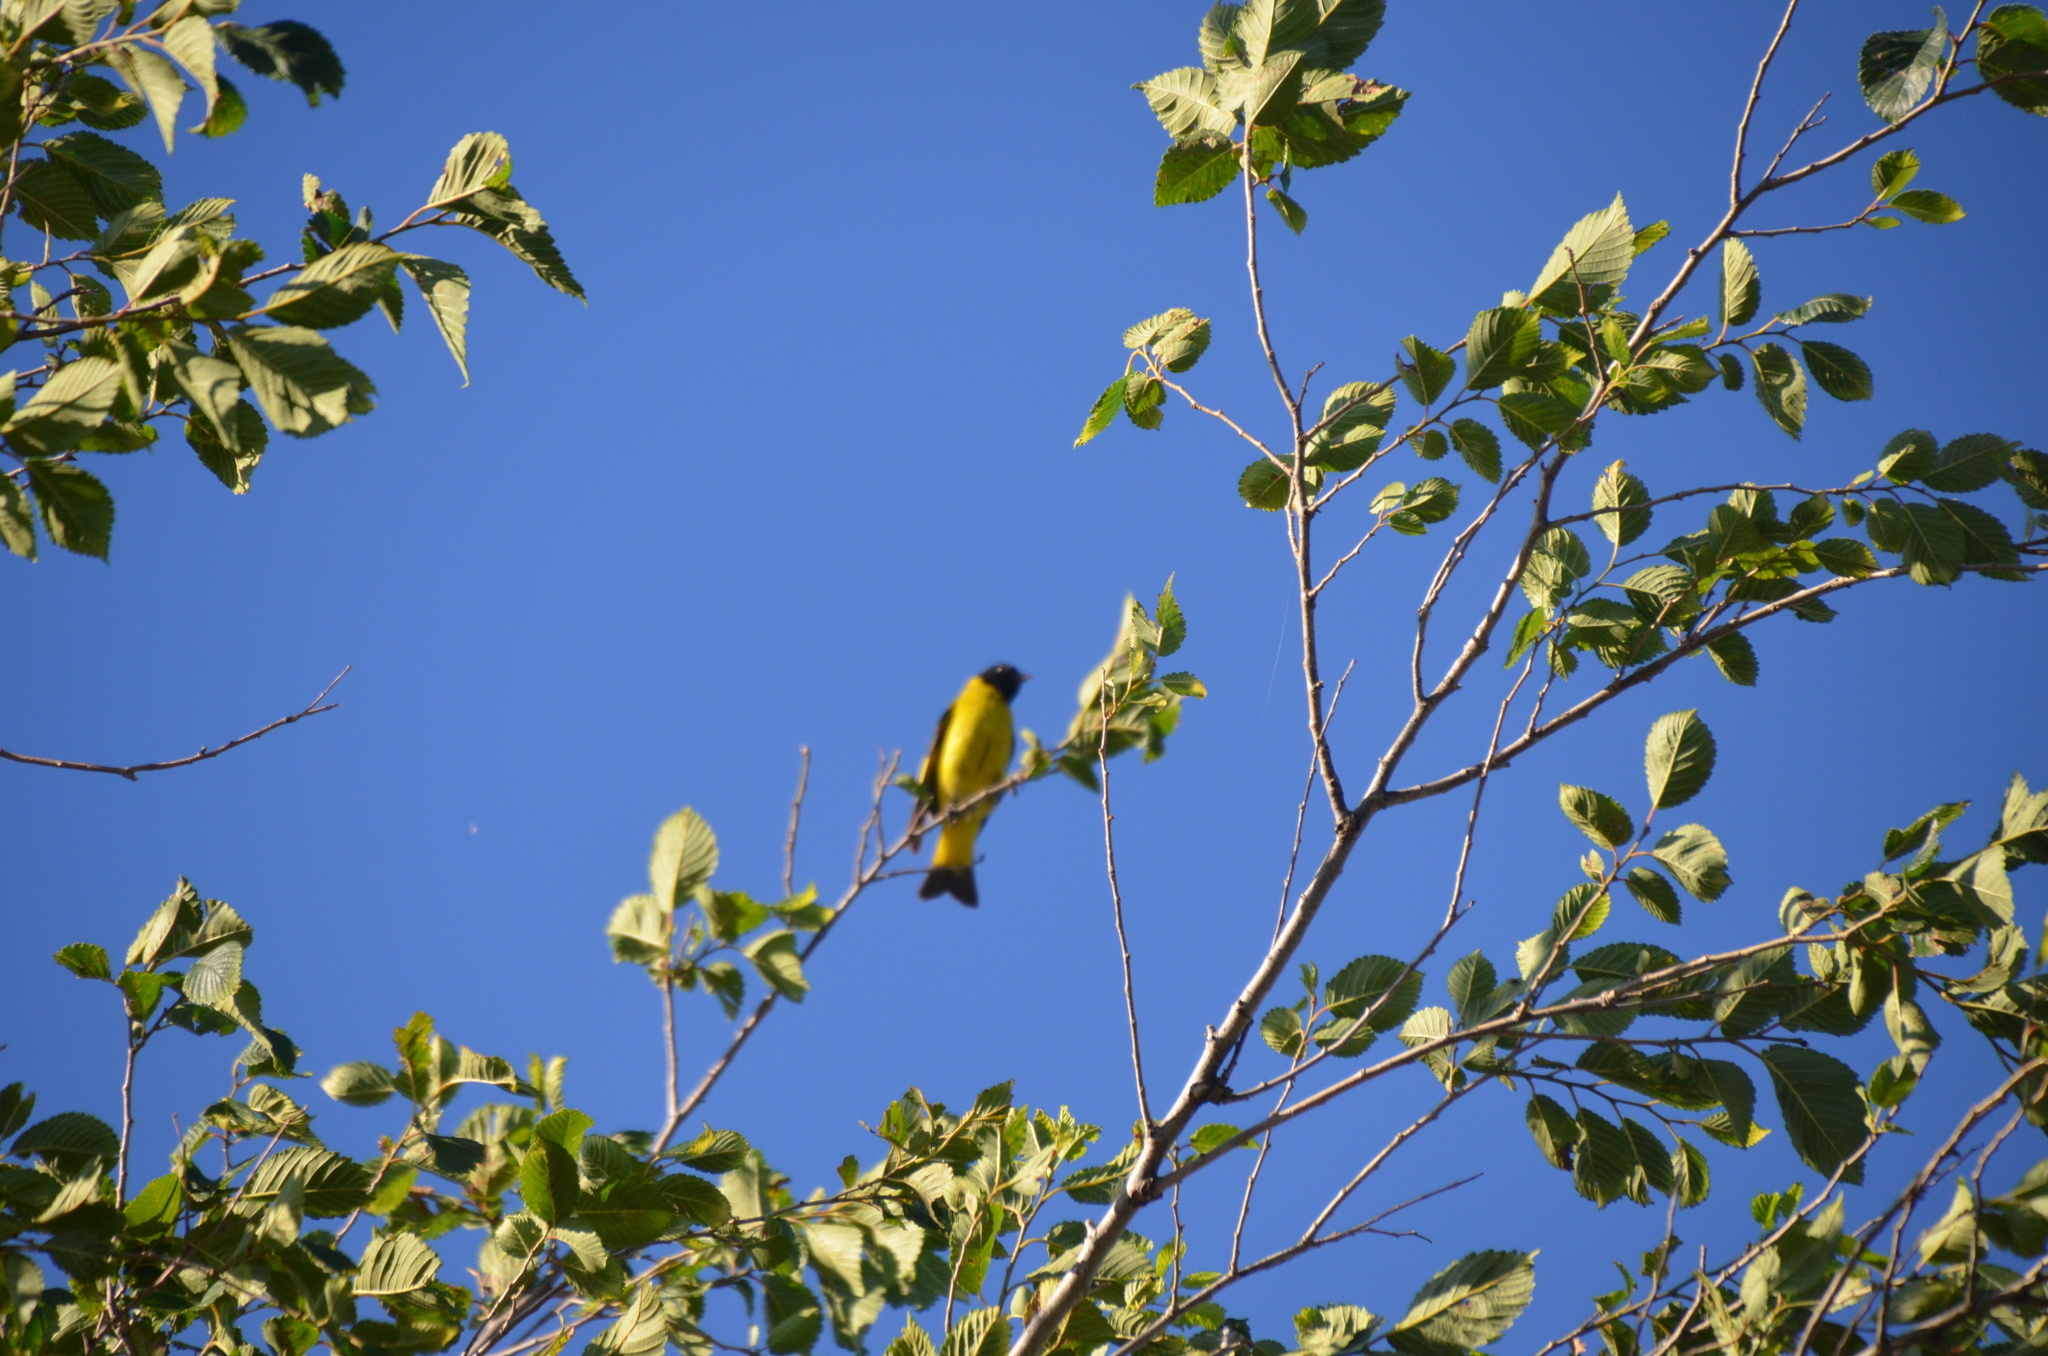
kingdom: Animalia
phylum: Chordata
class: Aves
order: Passeriformes
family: Fringillidae
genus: Spinus
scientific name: Spinus magellanicus
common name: Hooded siskin
